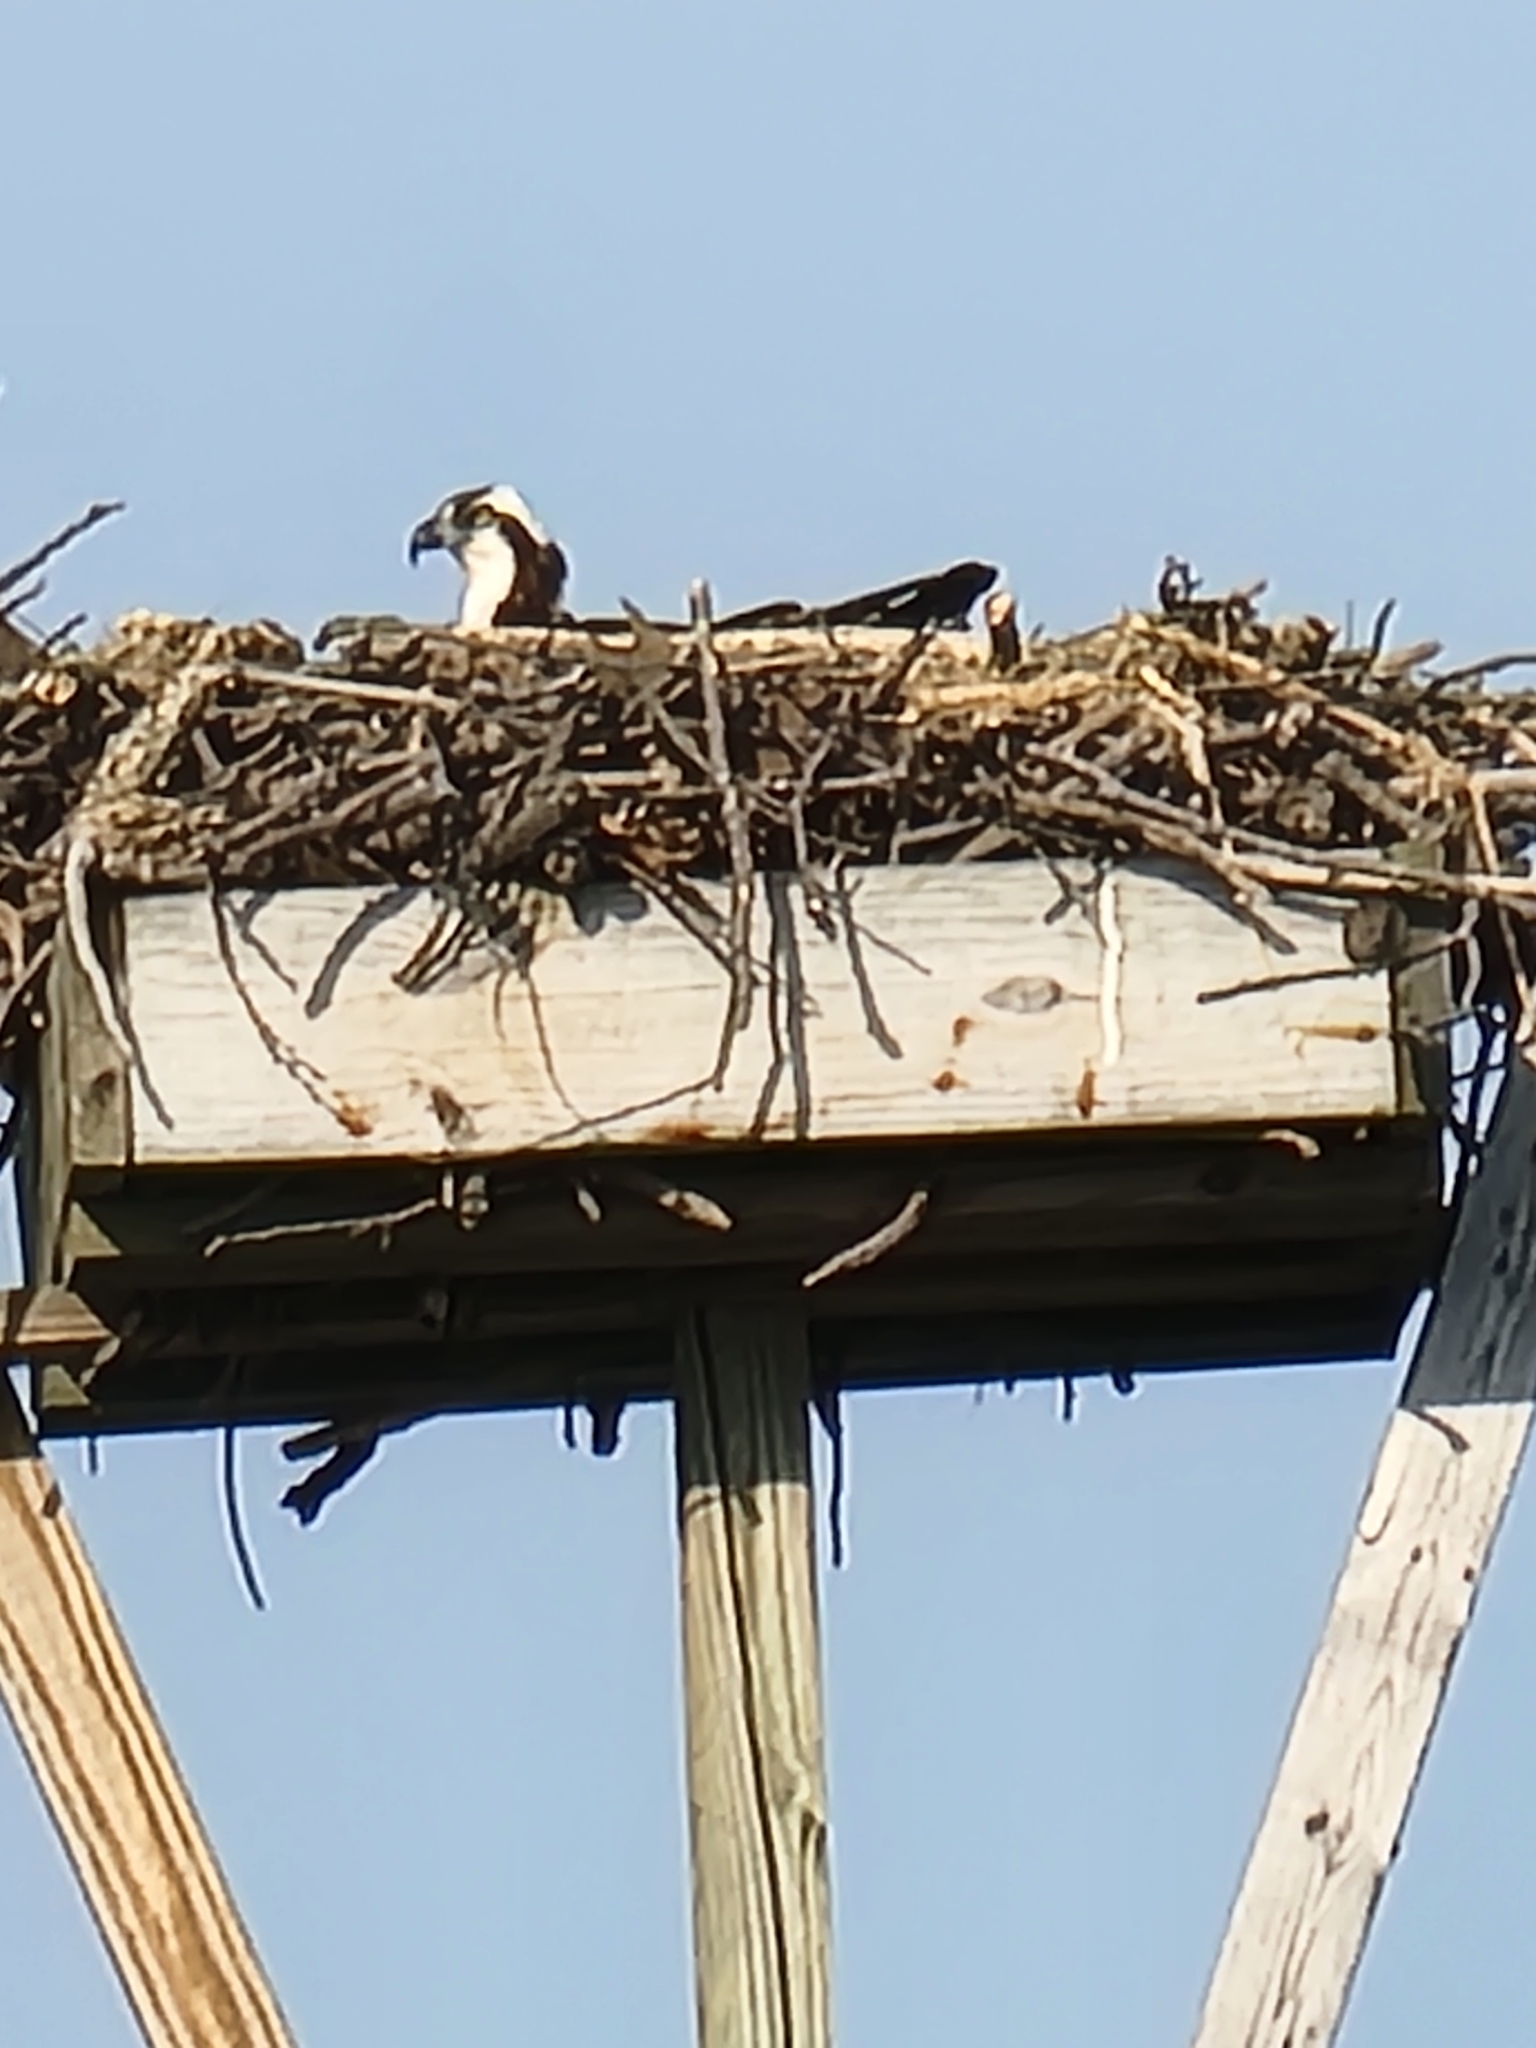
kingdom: Animalia
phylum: Chordata
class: Aves
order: Accipitriformes
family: Pandionidae
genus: Pandion
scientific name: Pandion haliaetus
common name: Osprey
